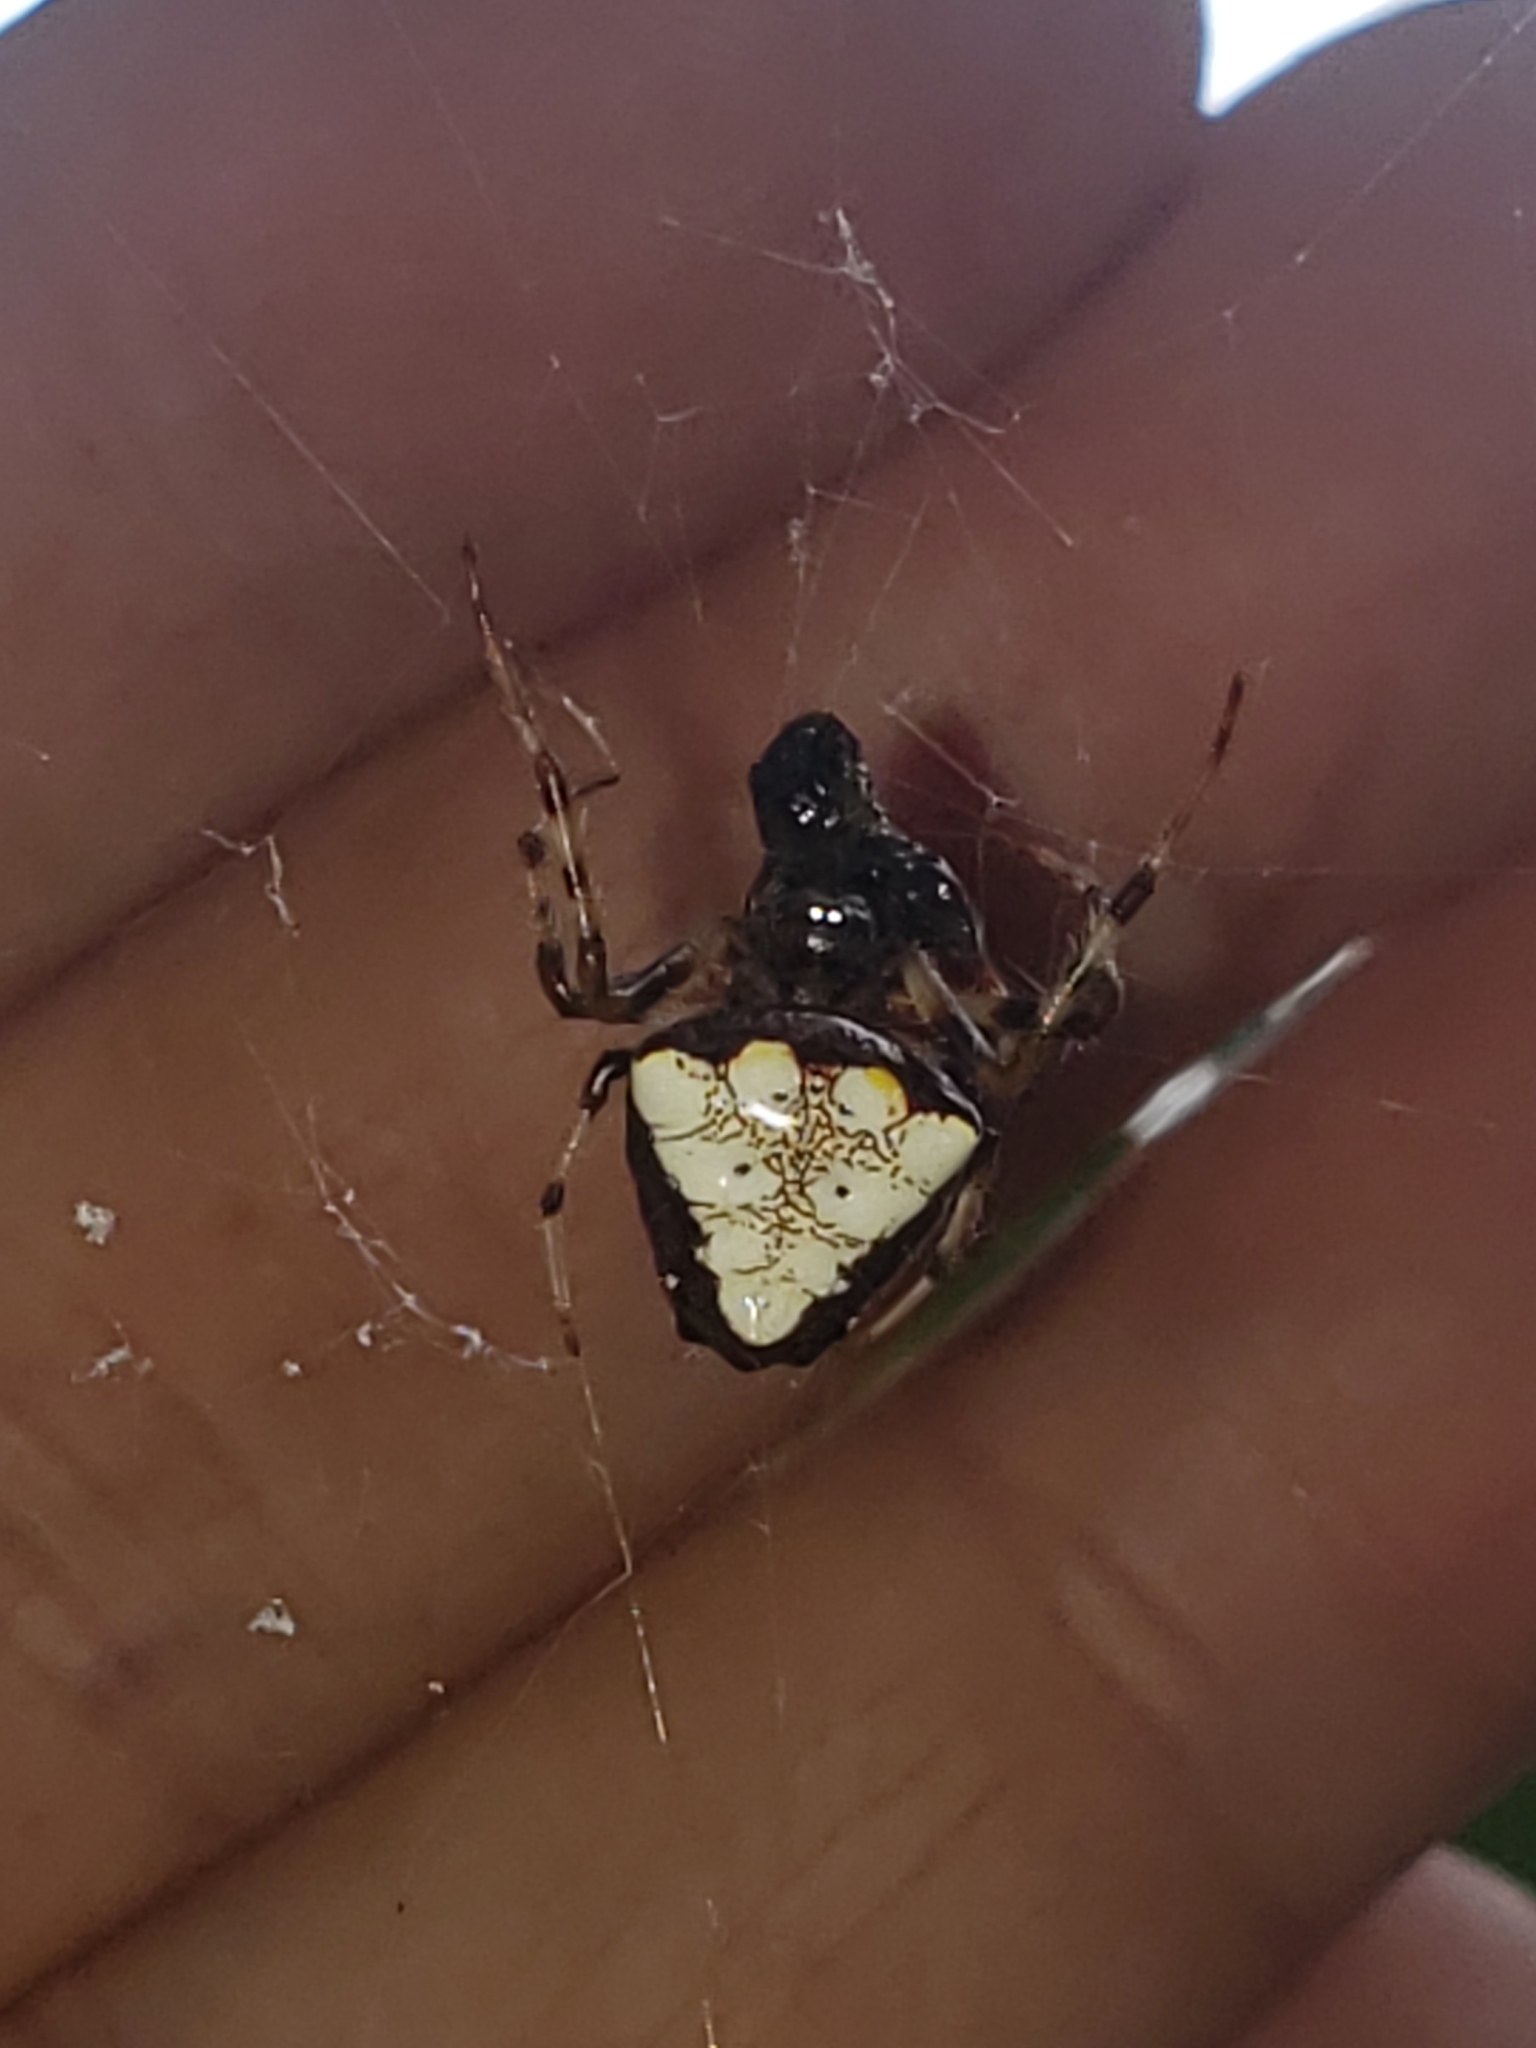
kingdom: Animalia
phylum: Arthropoda
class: Arachnida
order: Araneae
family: Araneidae
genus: Verrucosa
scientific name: Verrucosa arenata
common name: Orb weavers
